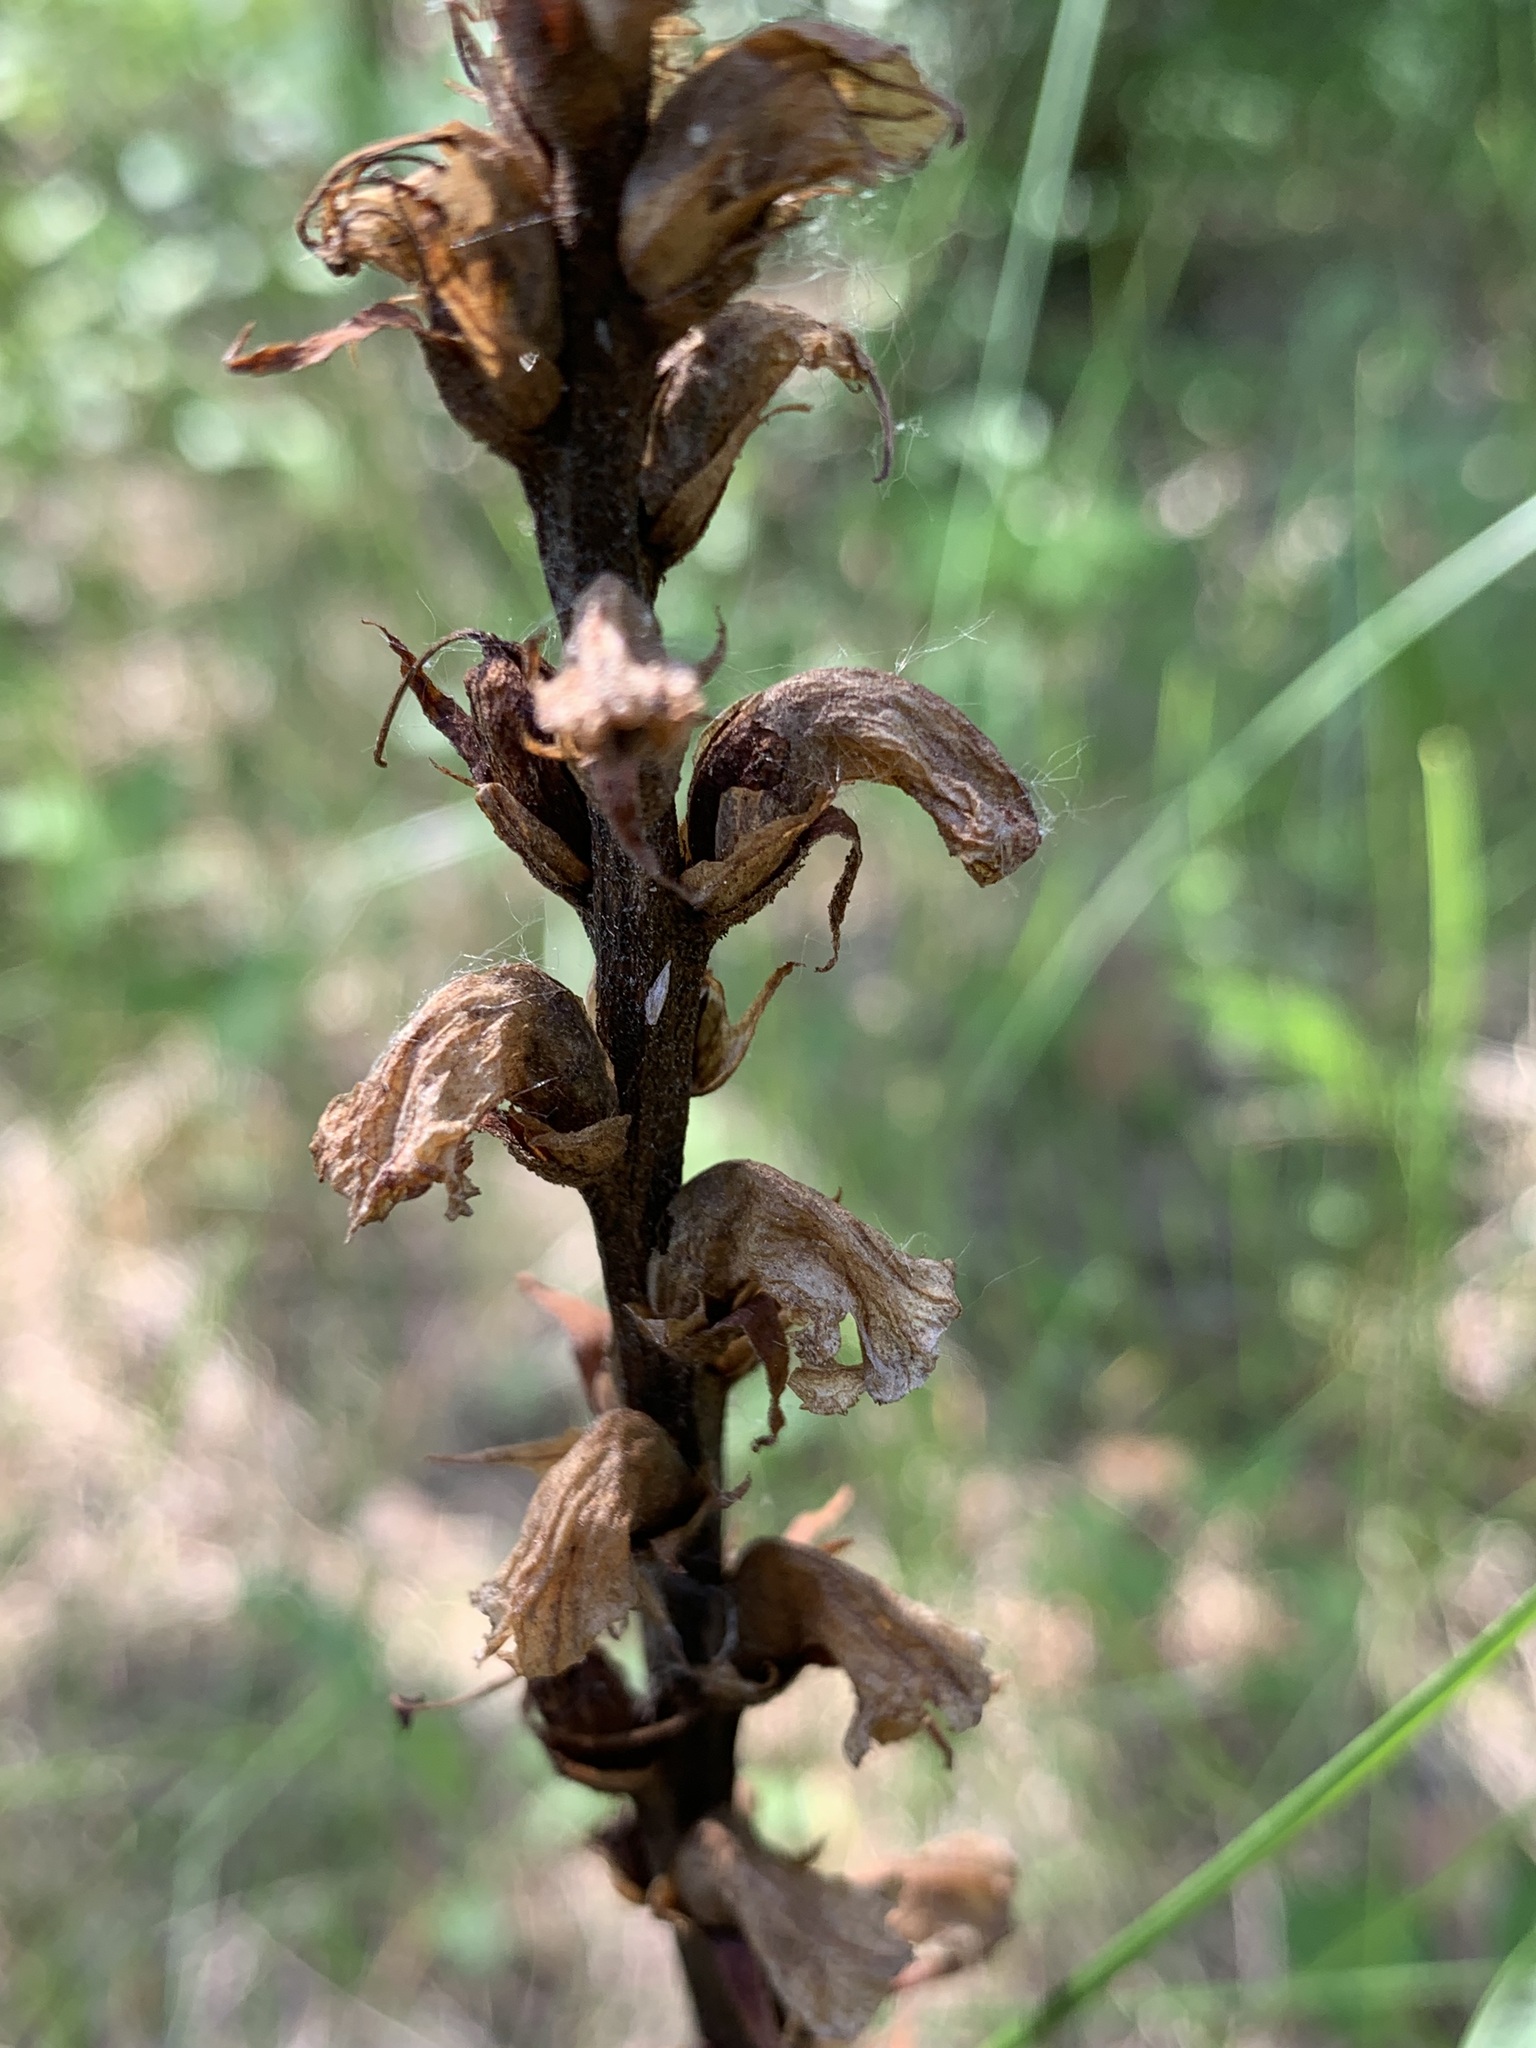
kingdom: Plantae
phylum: Tracheophyta
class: Magnoliopsida
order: Lamiales
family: Orobanchaceae
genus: Orobanche
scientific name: Orobanche alsatica
